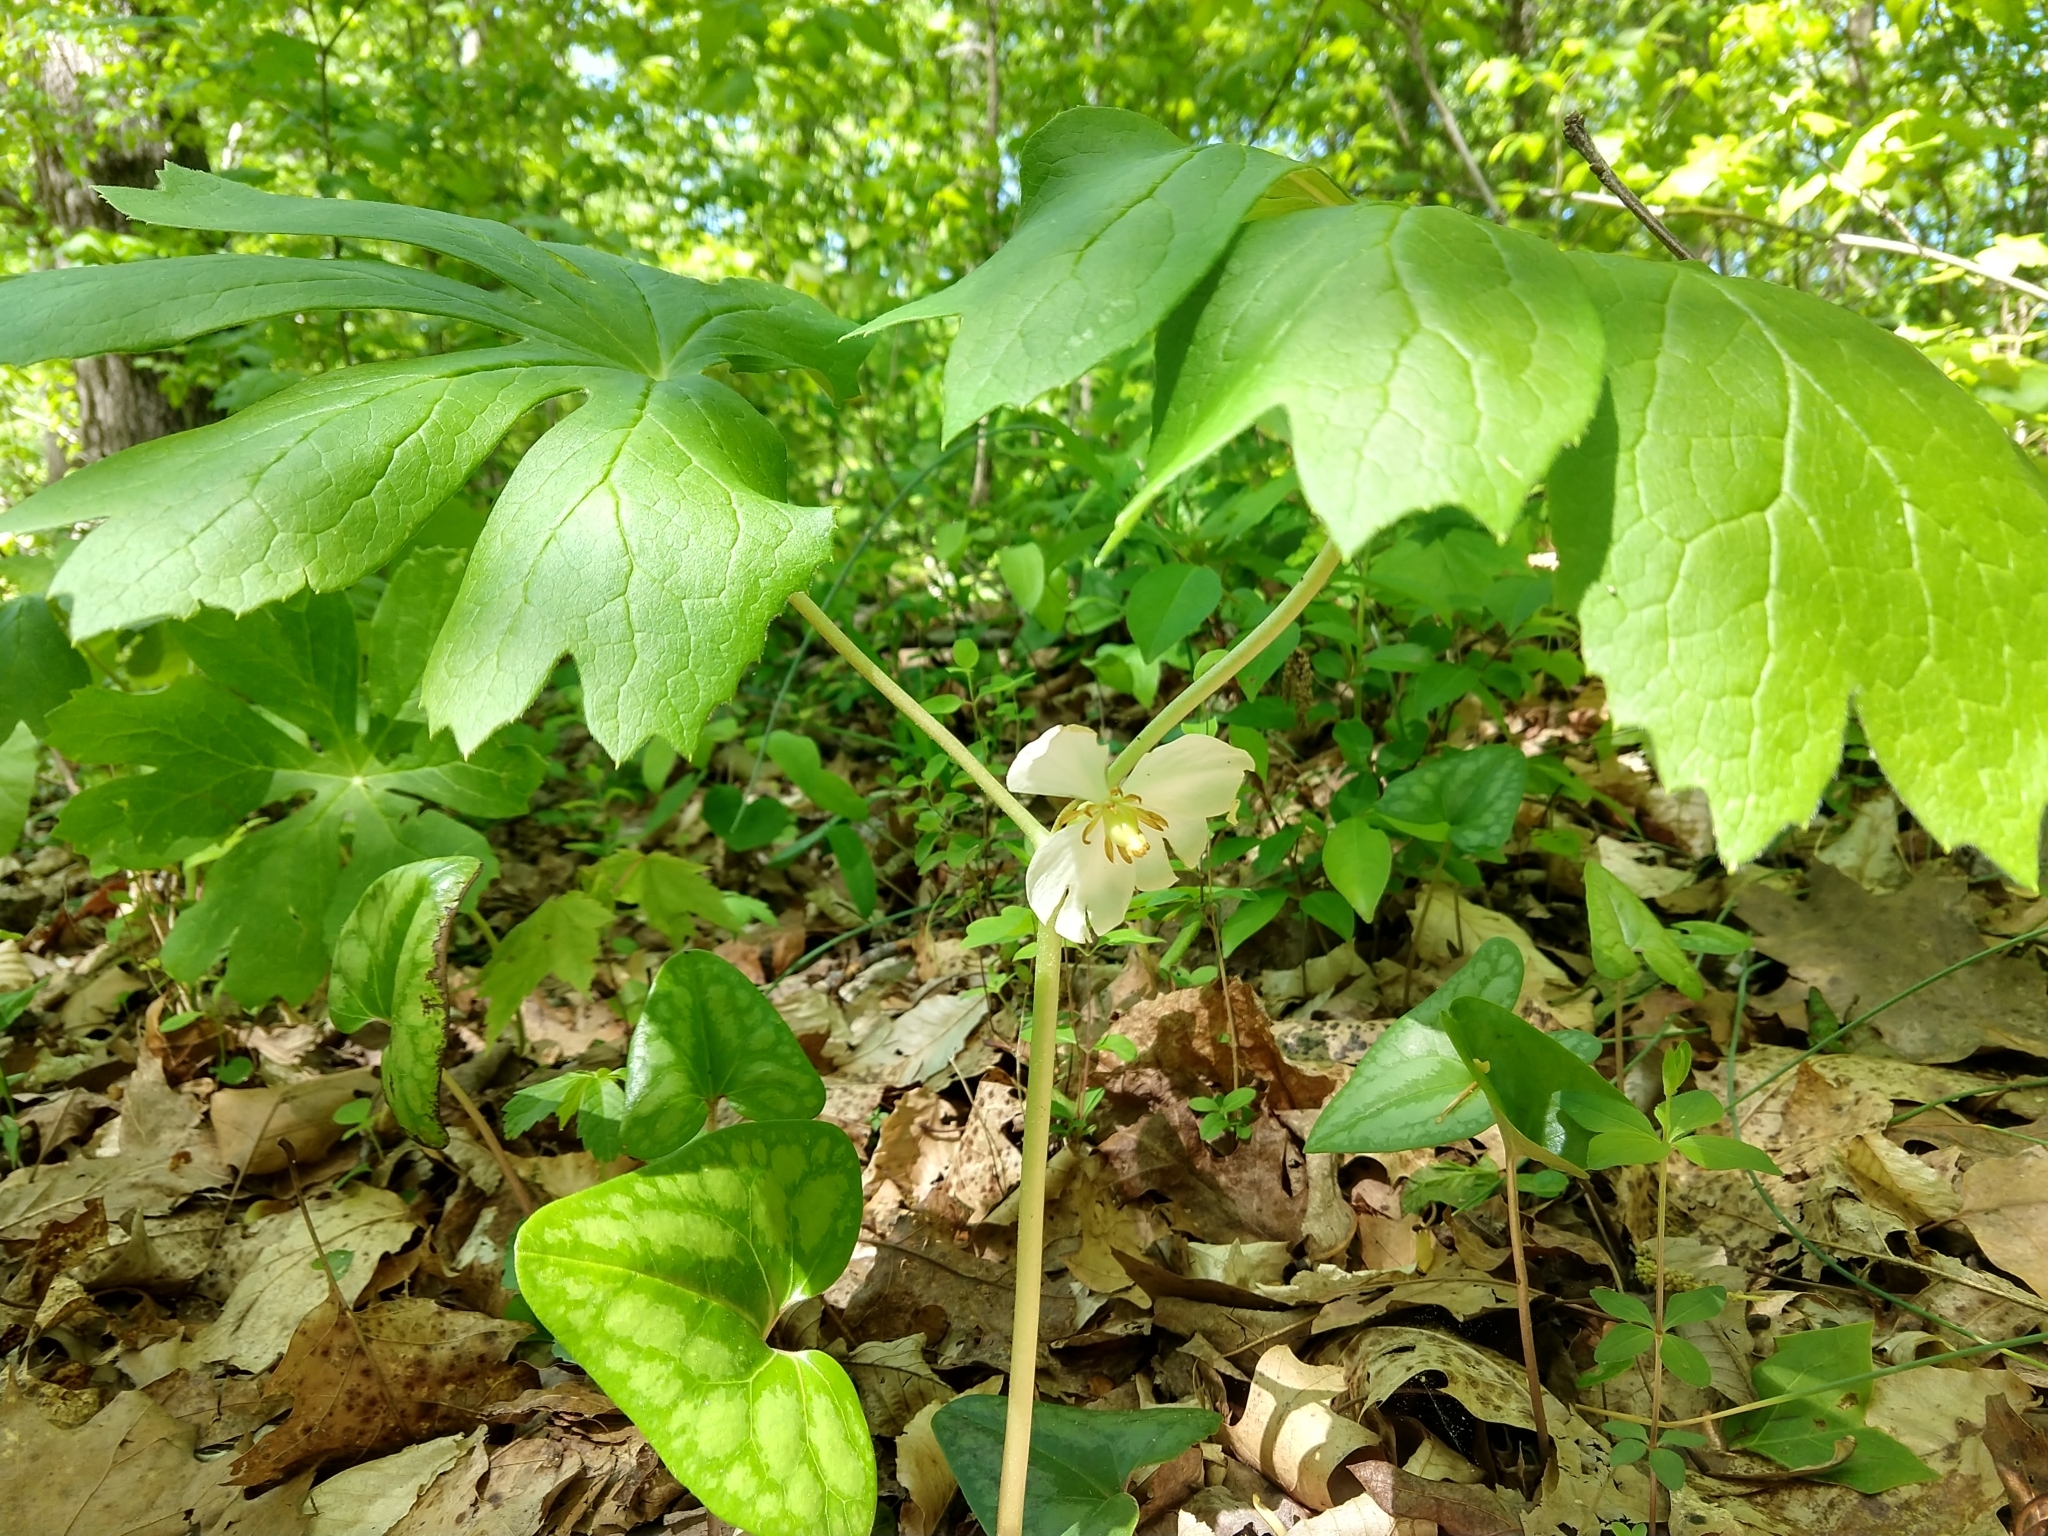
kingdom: Plantae
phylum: Tracheophyta
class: Magnoliopsida
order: Ranunculales
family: Berberidaceae
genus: Podophyllum
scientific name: Podophyllum peltatum
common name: Wild mandrake
